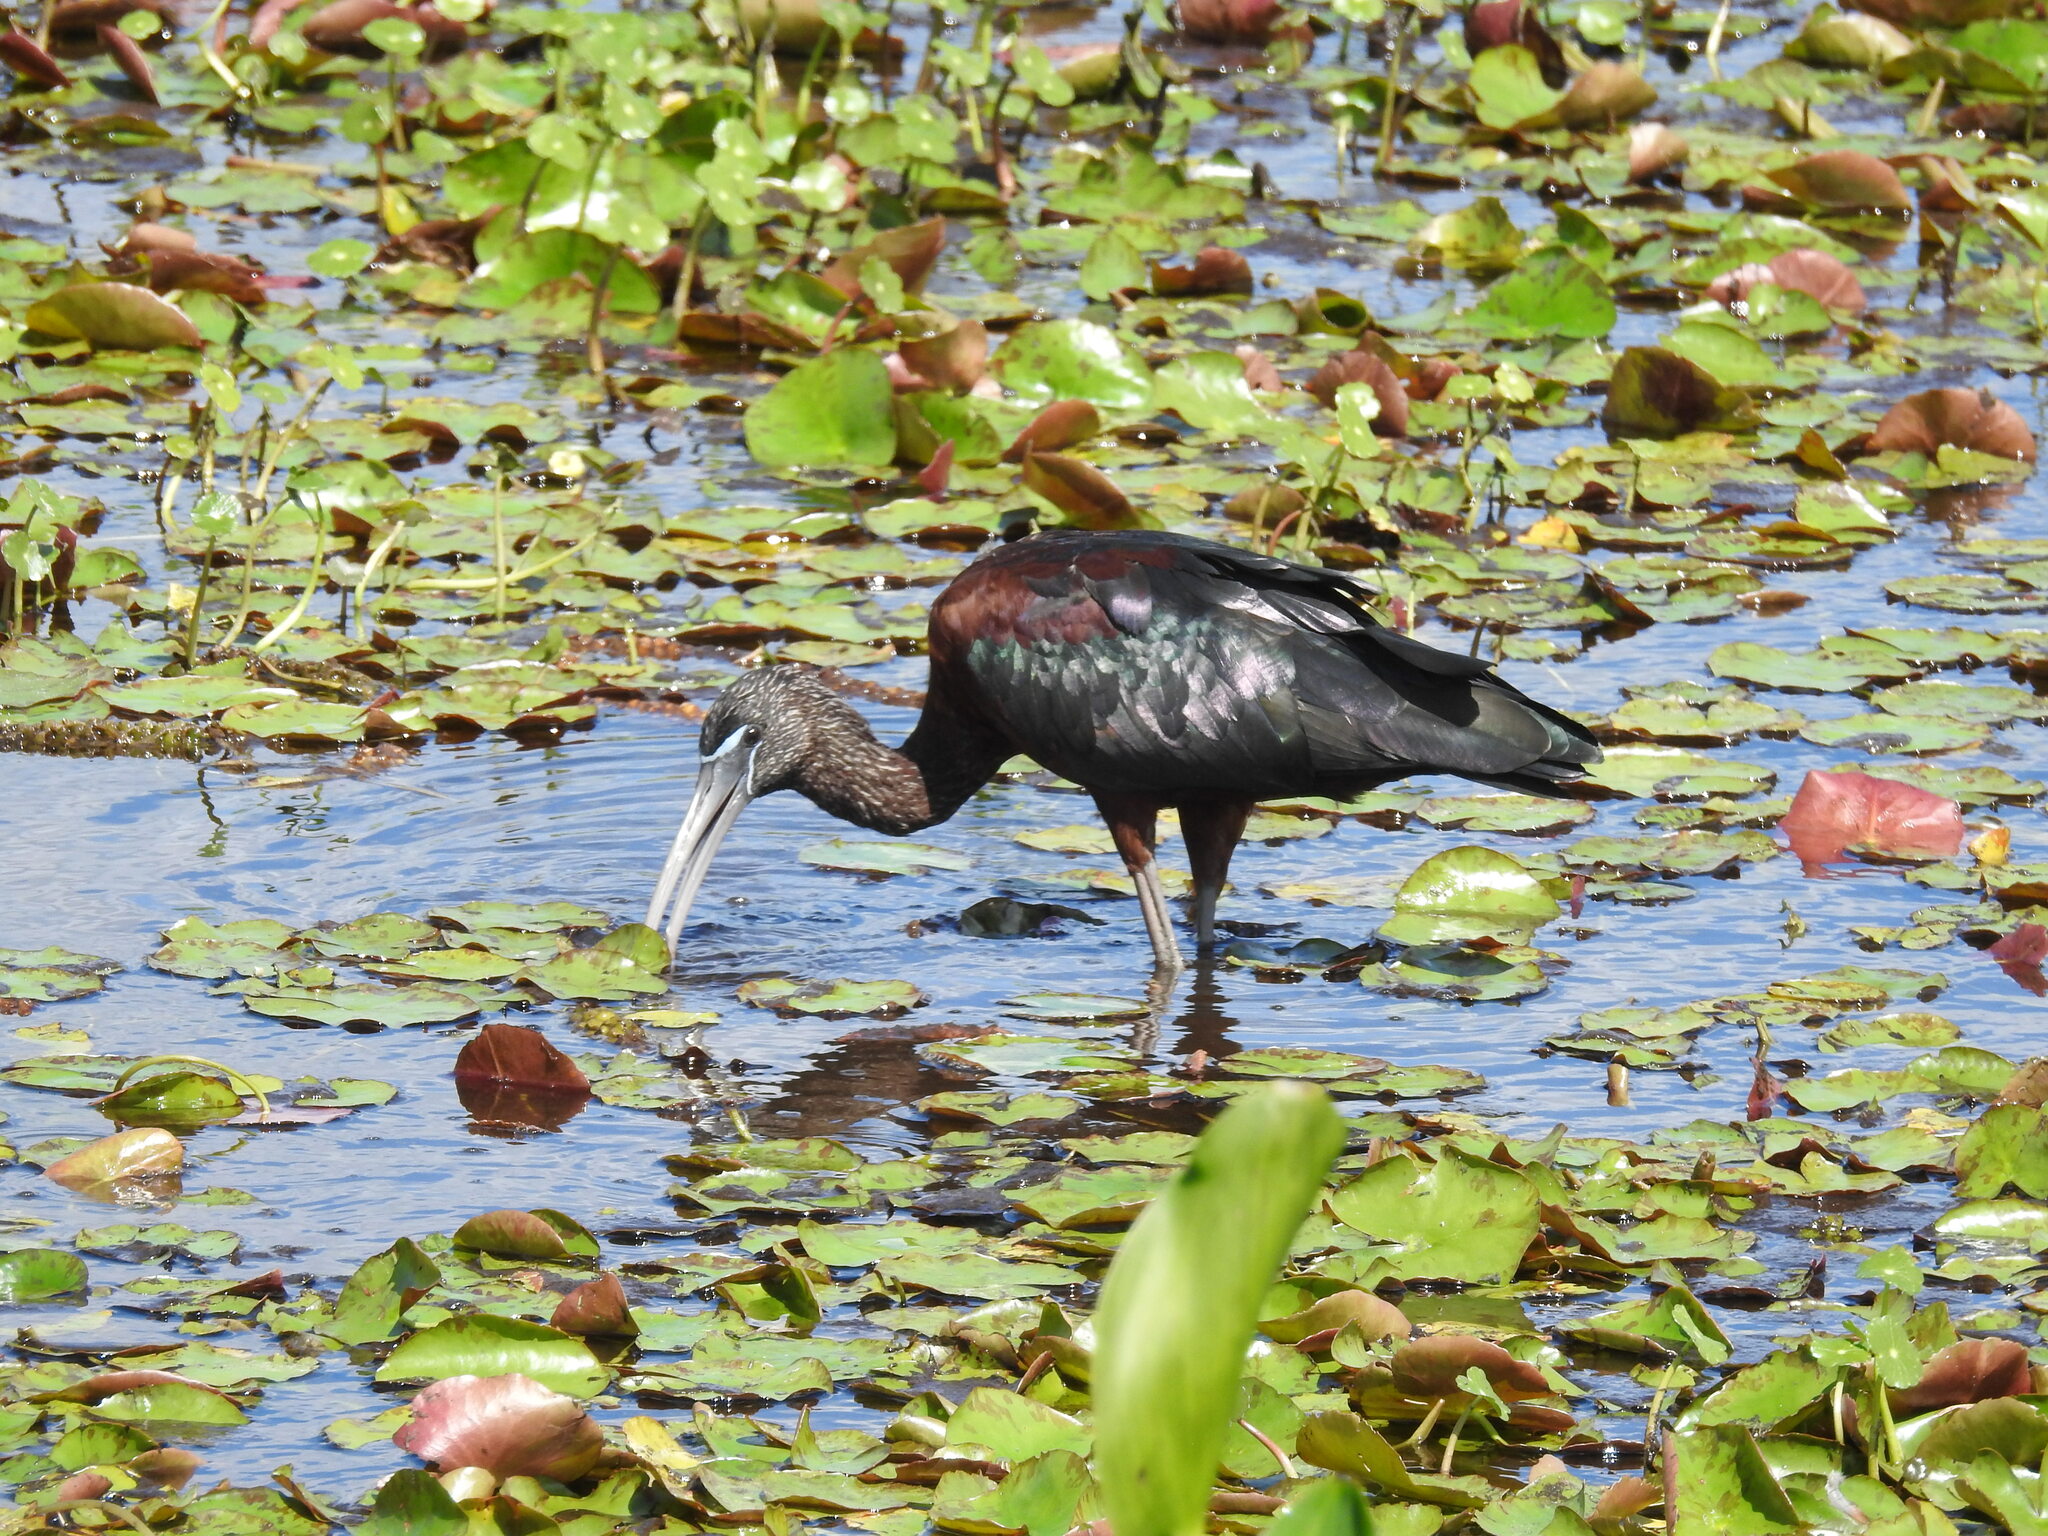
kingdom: Animalia
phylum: Chordata
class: Aves
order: Pelecaniformes
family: Threskiornithidae
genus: Plegadis
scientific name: Plegadis falcinellus
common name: Glossy ibis
